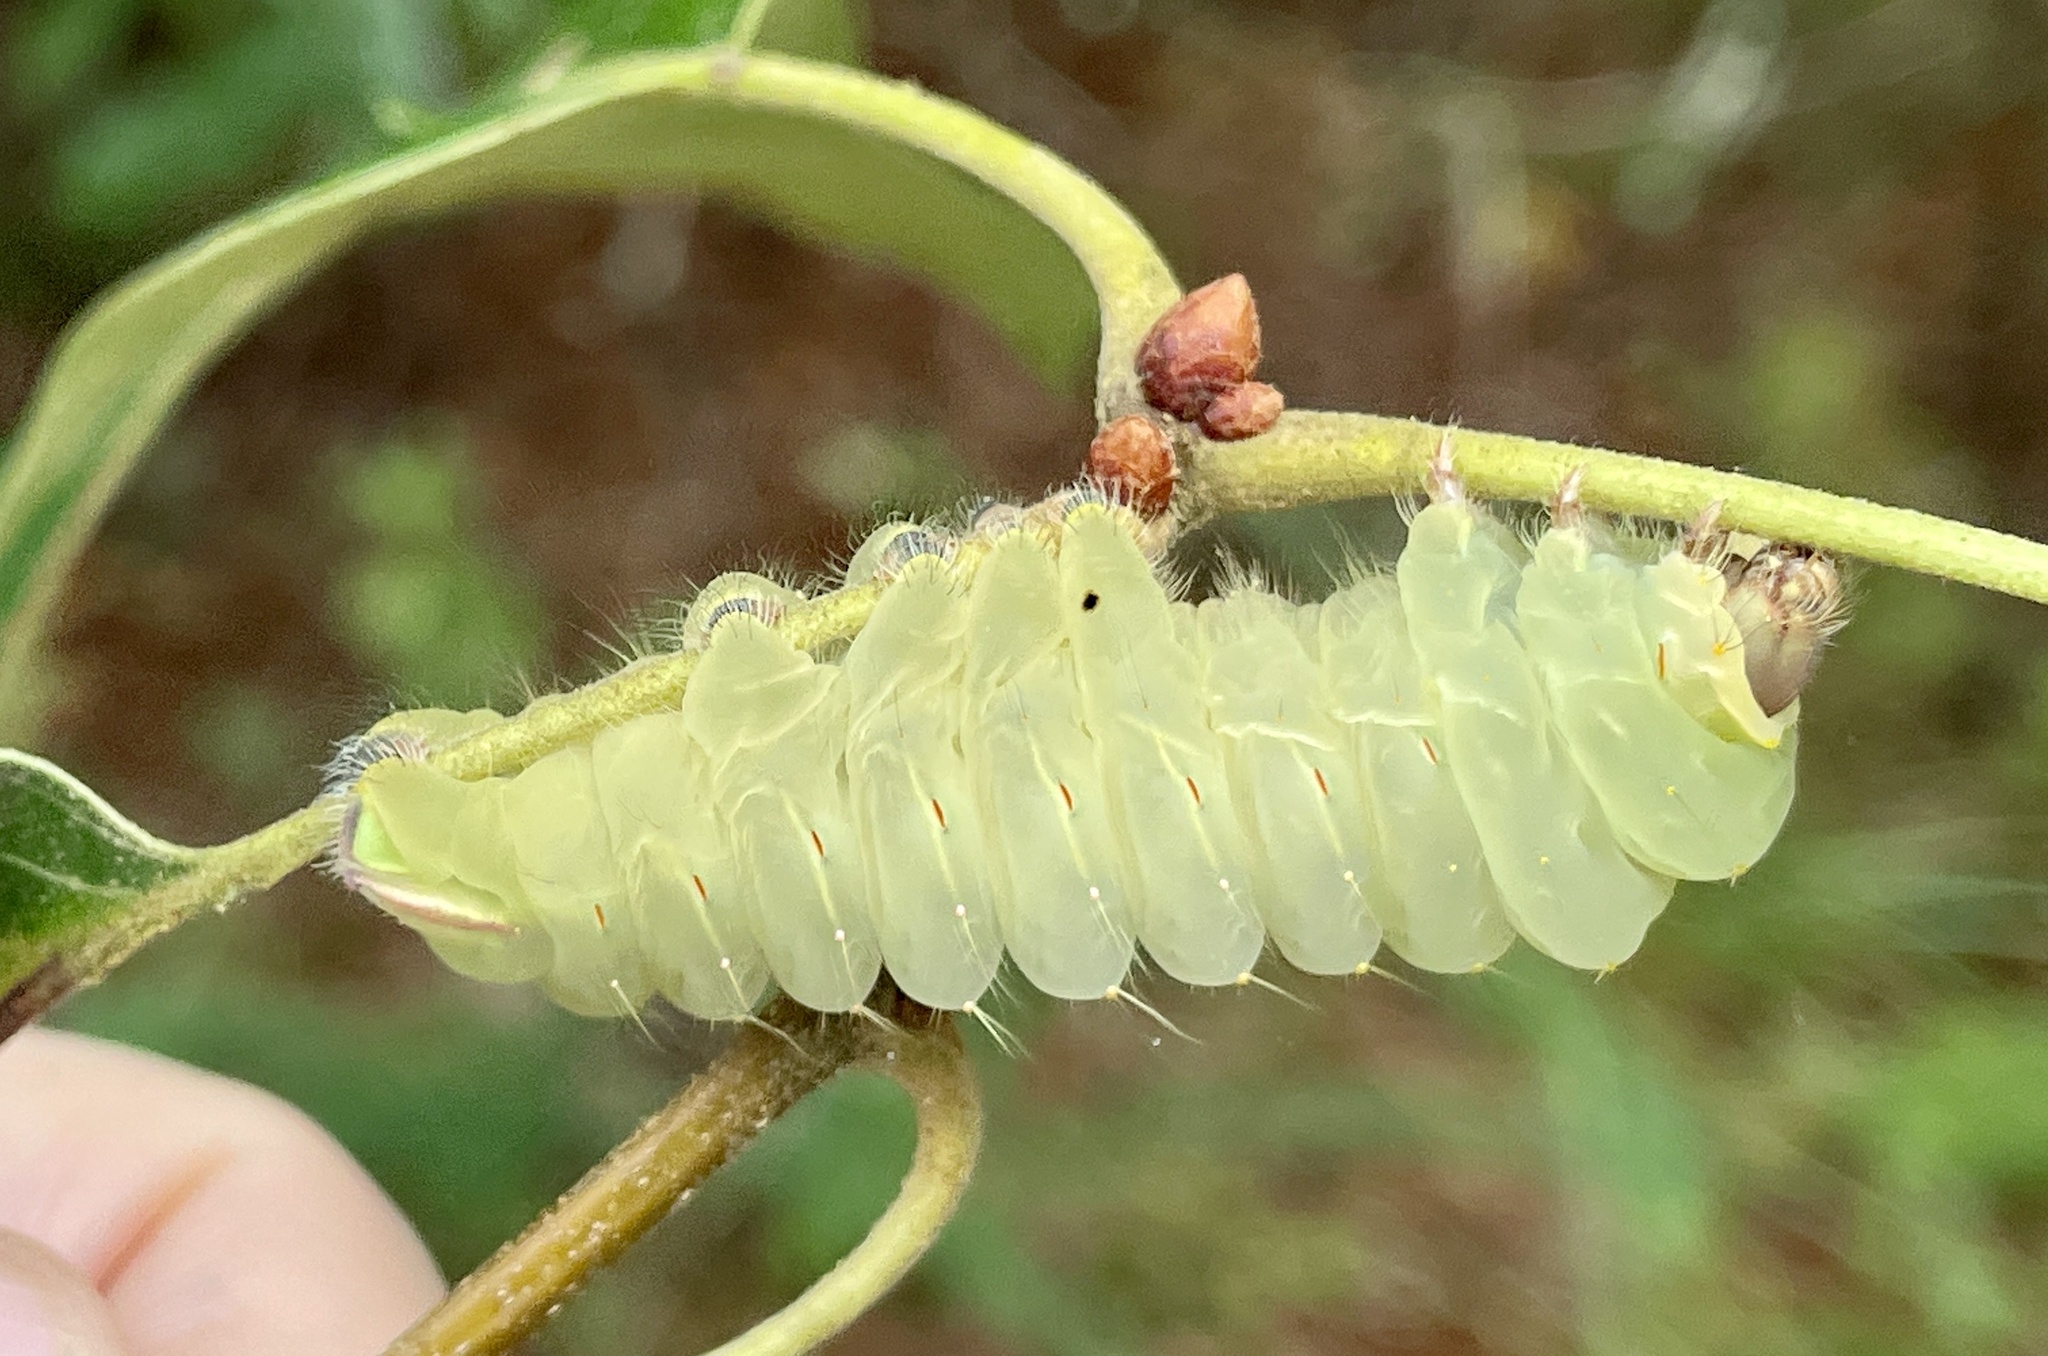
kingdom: Animalia
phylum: Arthropoda
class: Insecta
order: Lepidoptera
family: Saturniidae
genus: Antheraea
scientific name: Antheraea polyphemus
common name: Polyphemus moth
